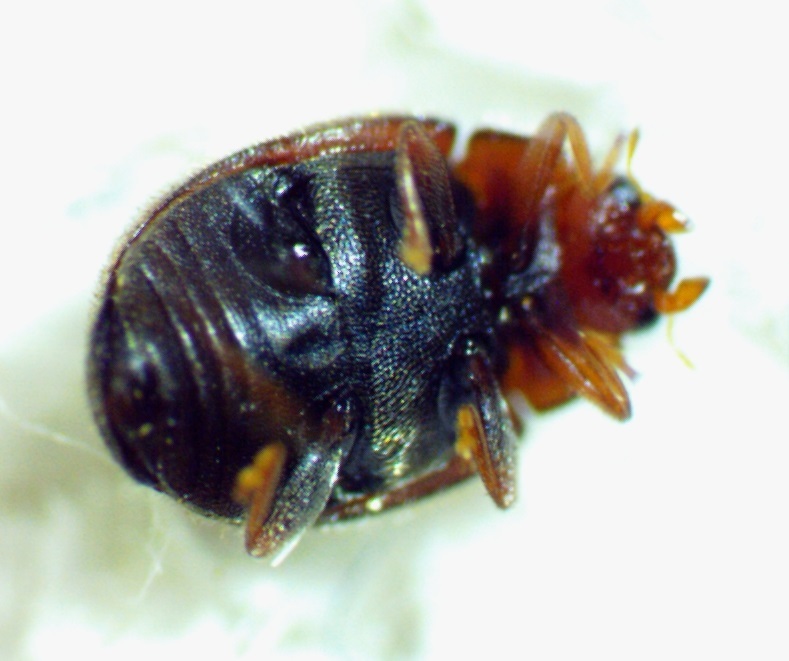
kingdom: Animalia
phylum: Arthropoda
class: Insecta
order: Coleoptera
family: Coccinellidae
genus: Scymnus
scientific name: Scymnus loewii
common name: Dusky lady beetle
